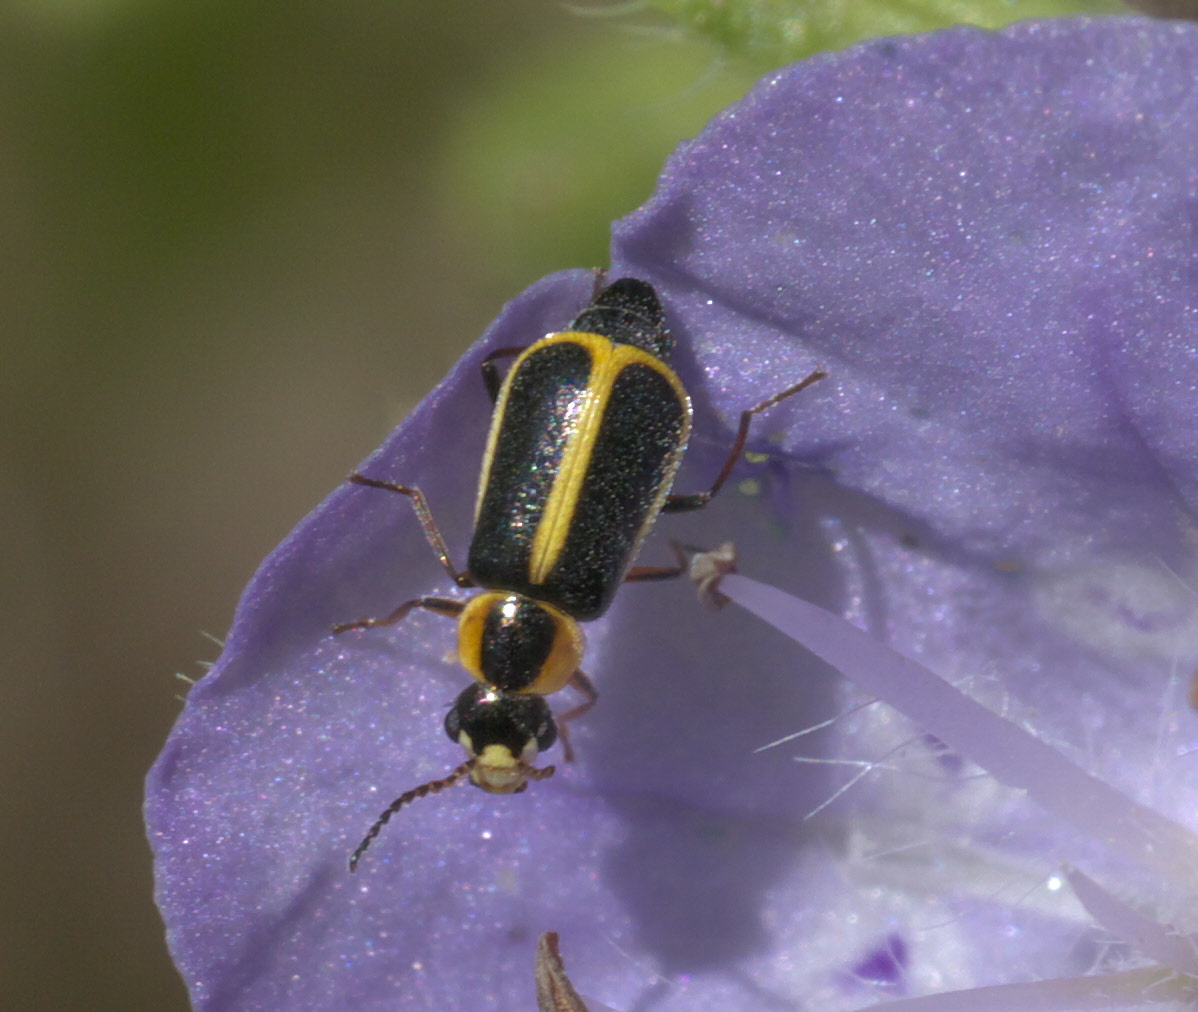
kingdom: Animalia
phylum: Arthropoda
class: Insecta
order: Coleoptera
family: Malachiidae
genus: Attalus
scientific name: Attalus
